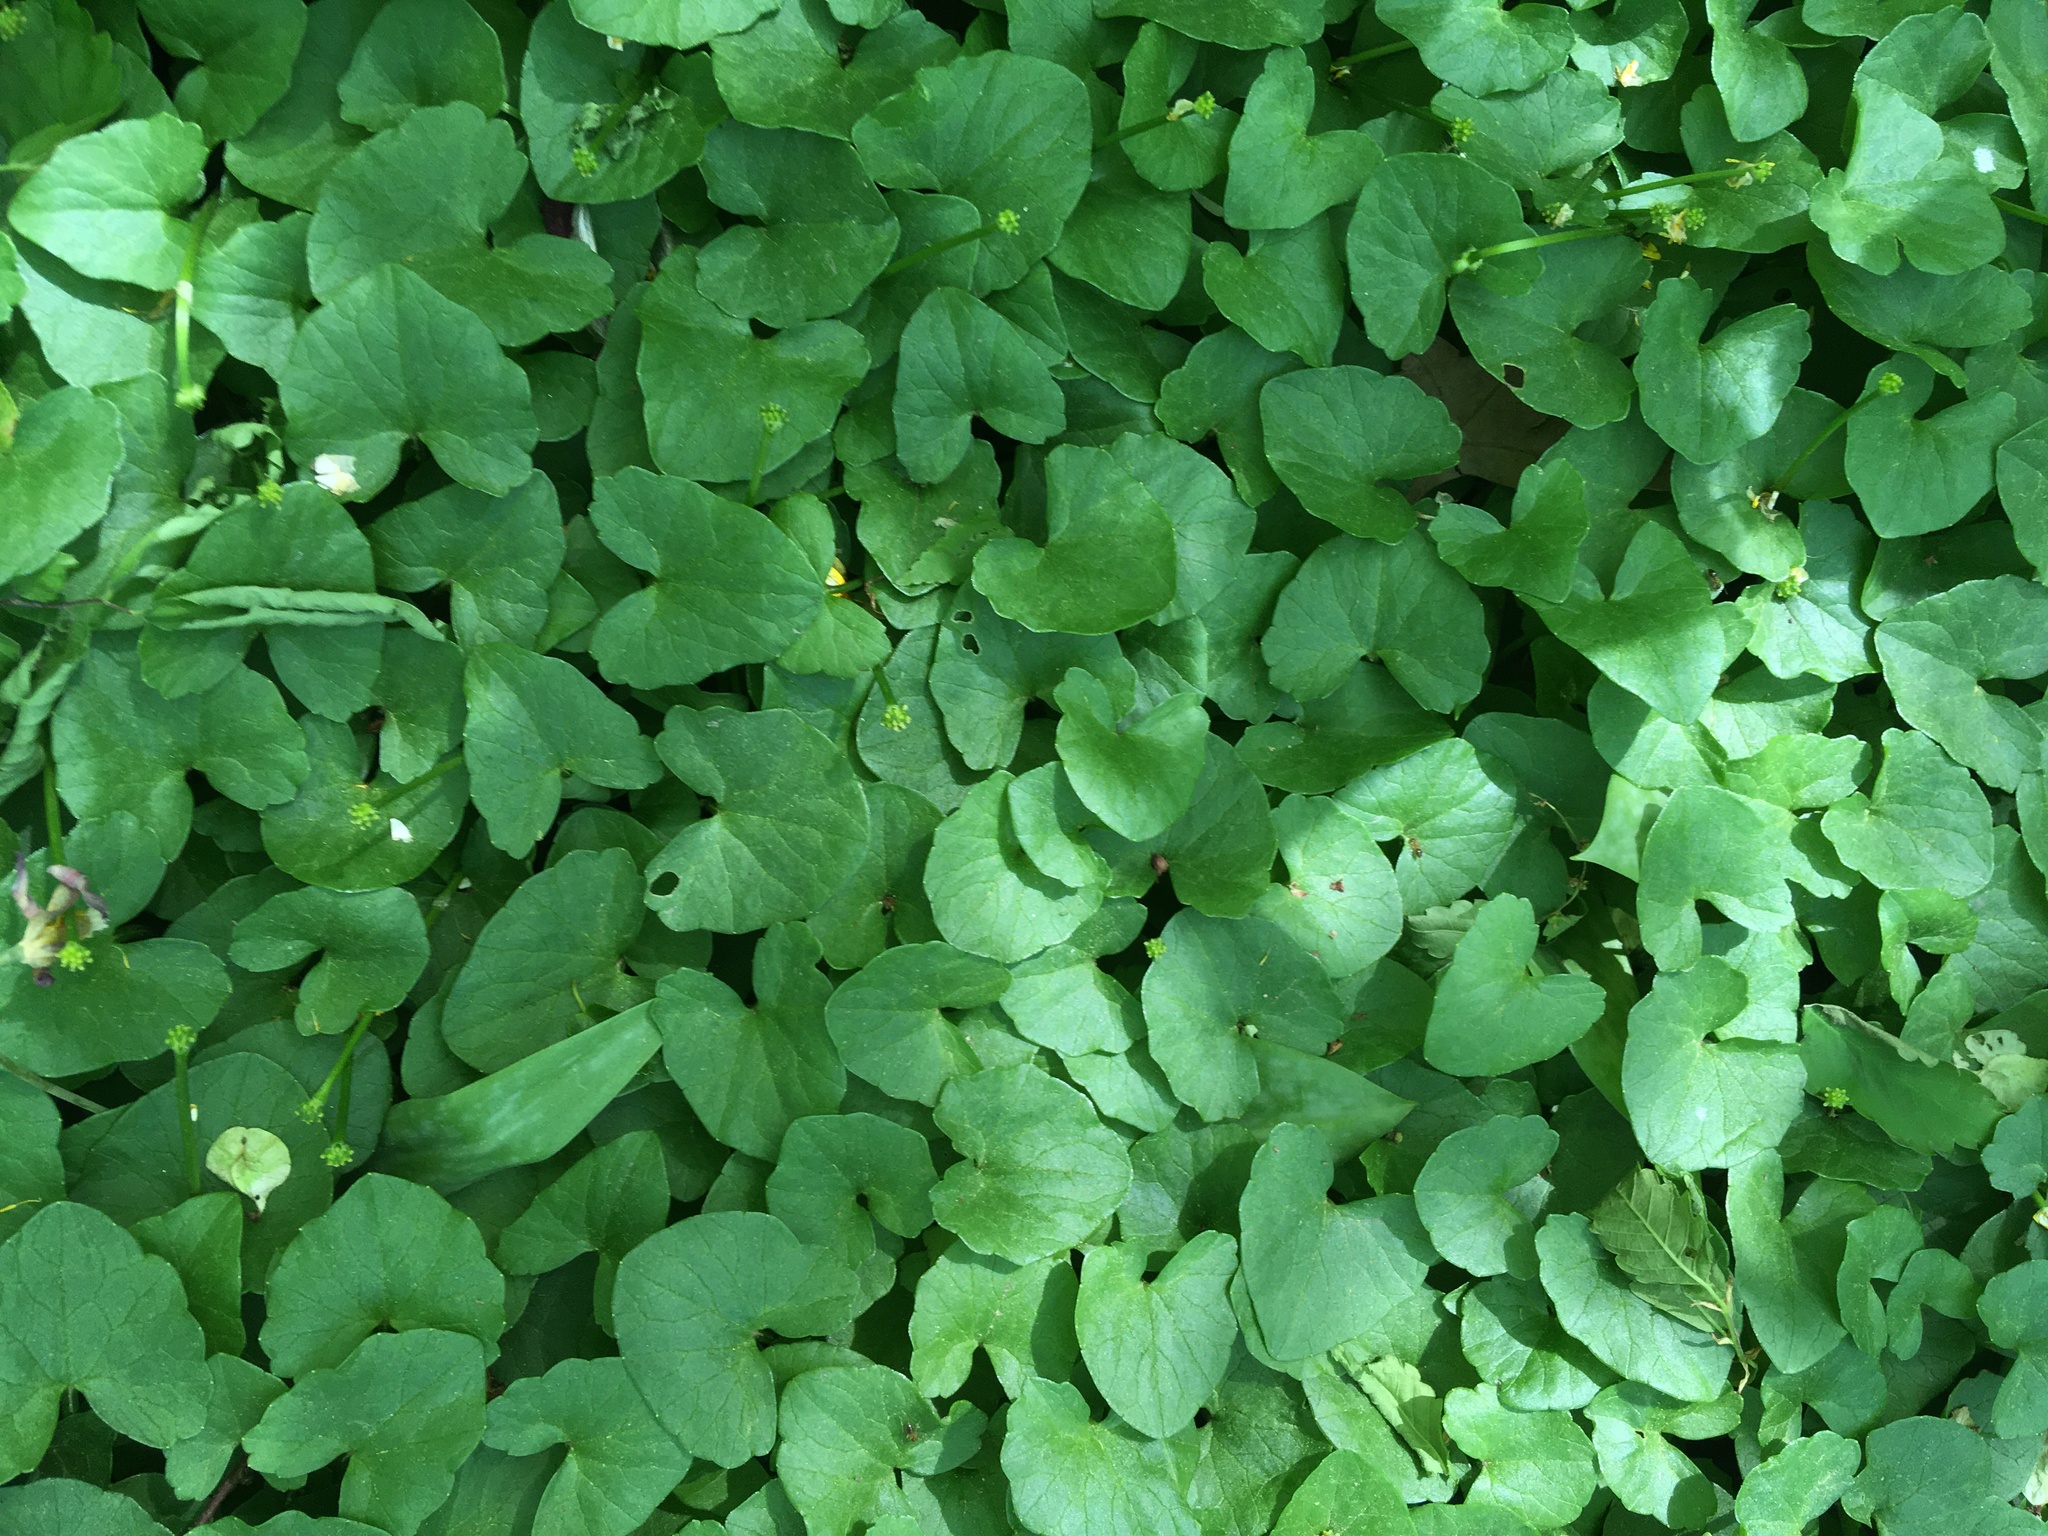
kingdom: Plantae
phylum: Tracheophyta
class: Magnoliopsida
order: Ranunculales
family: Ranunculaceae
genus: Ficaria
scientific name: Ficaria verna
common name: Lesser celandine
